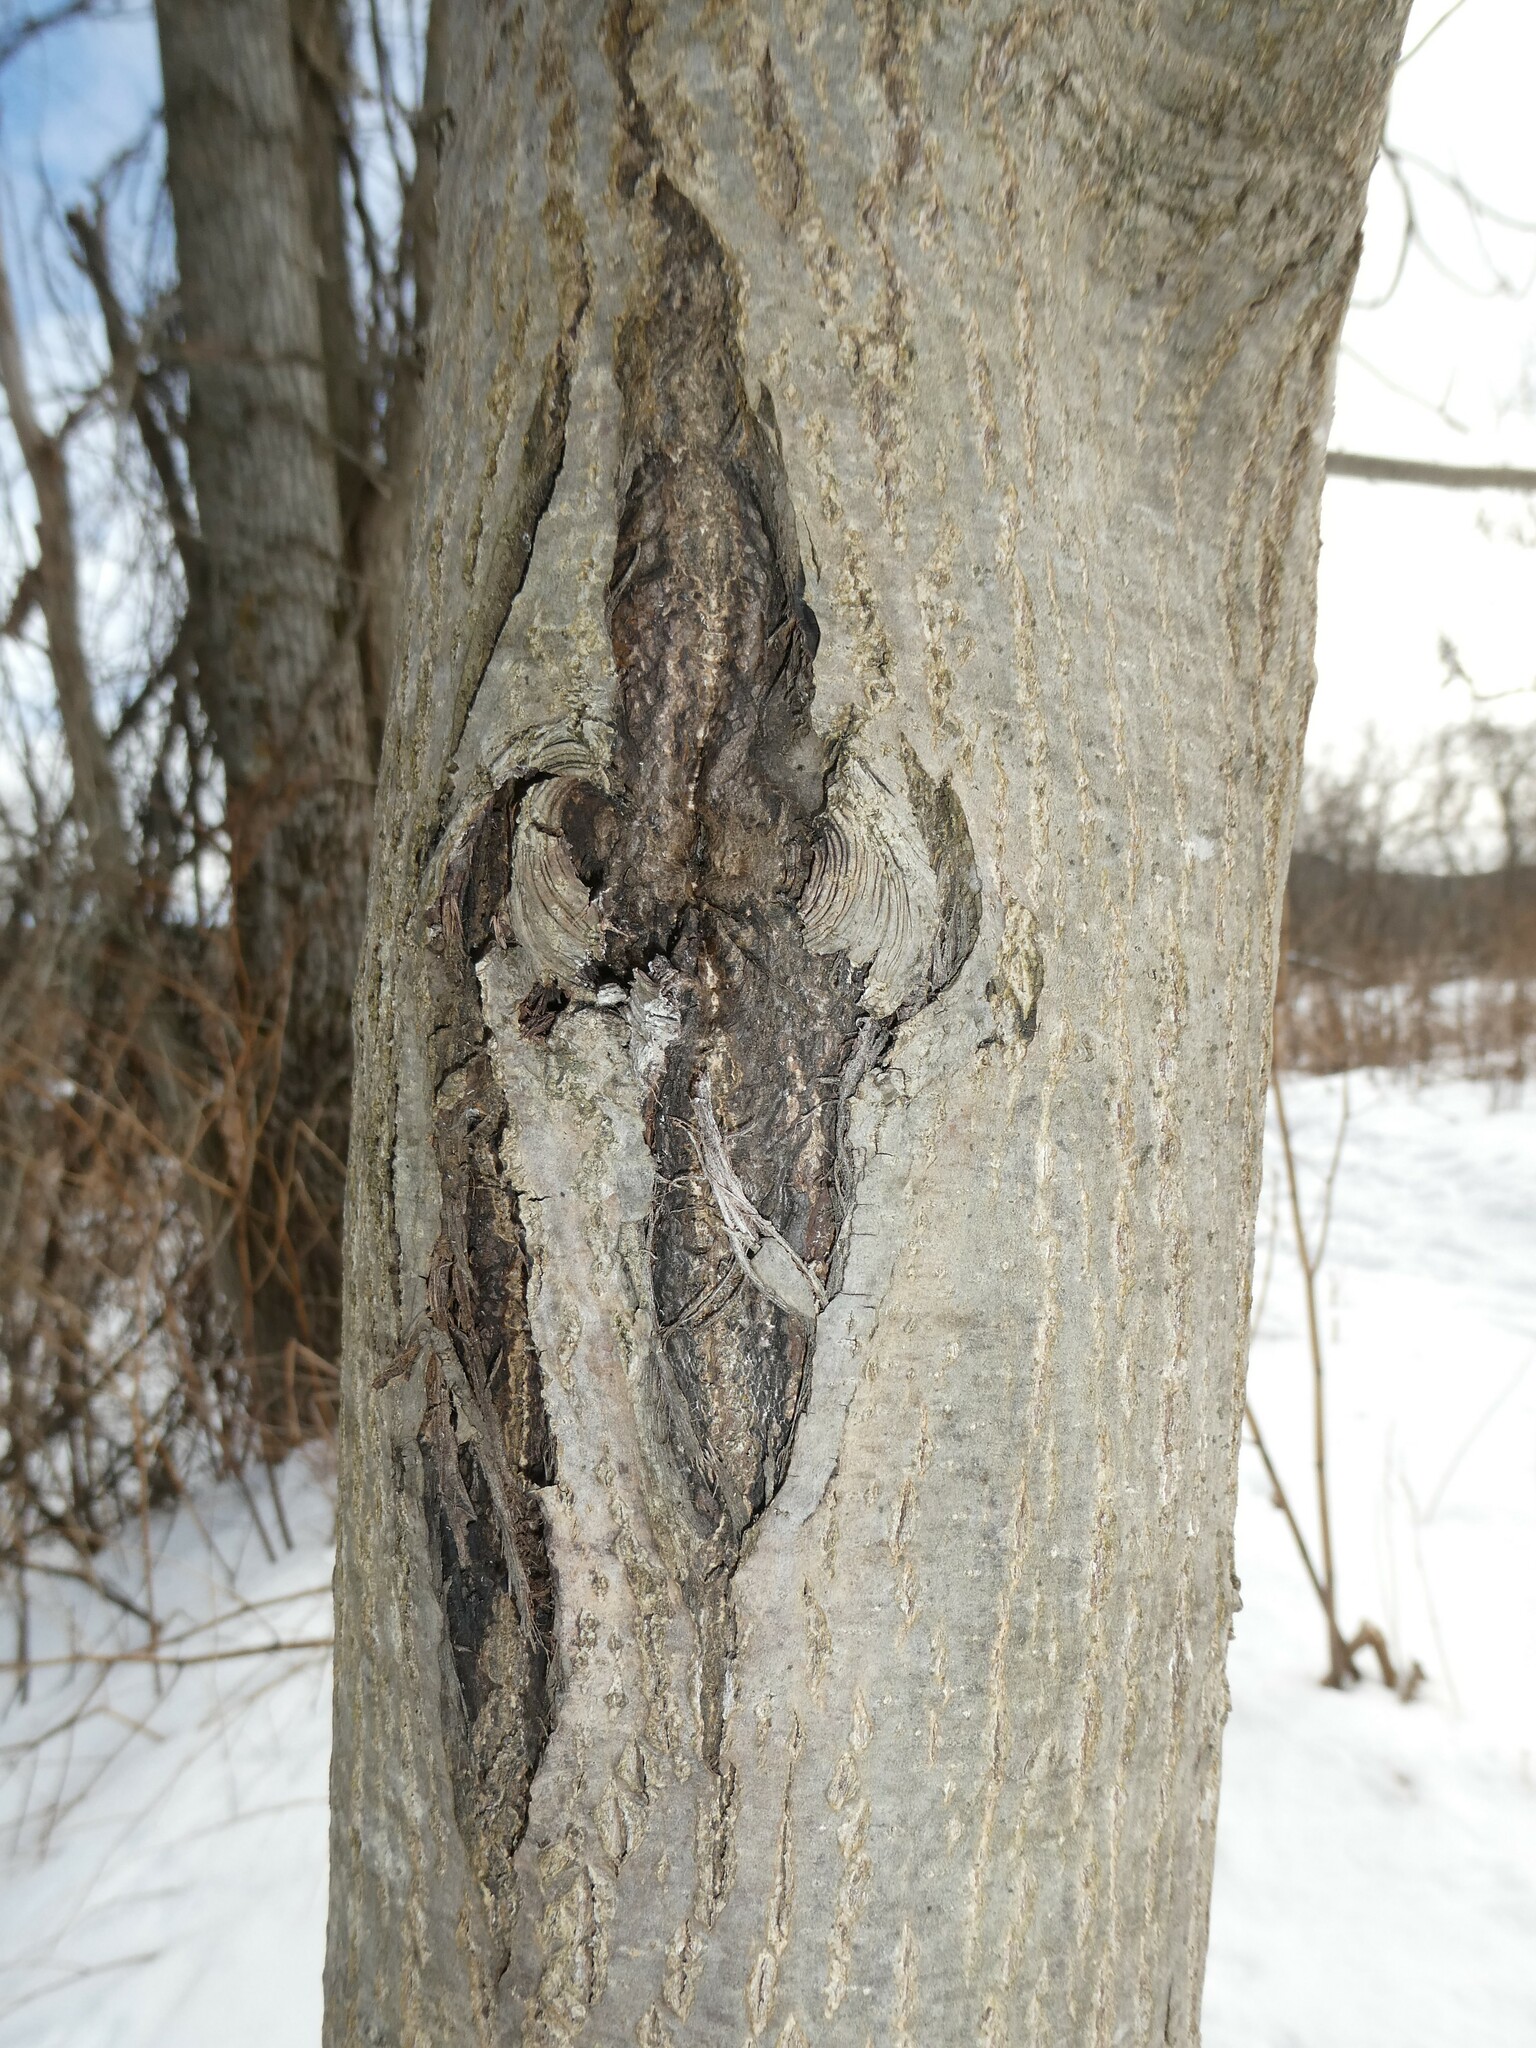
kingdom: Plantae
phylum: Tracheophyta
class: Magnoliopsida
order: Fagales
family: Juglandaceae
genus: Juglans
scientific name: Juglans cinerea
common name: Butternut
